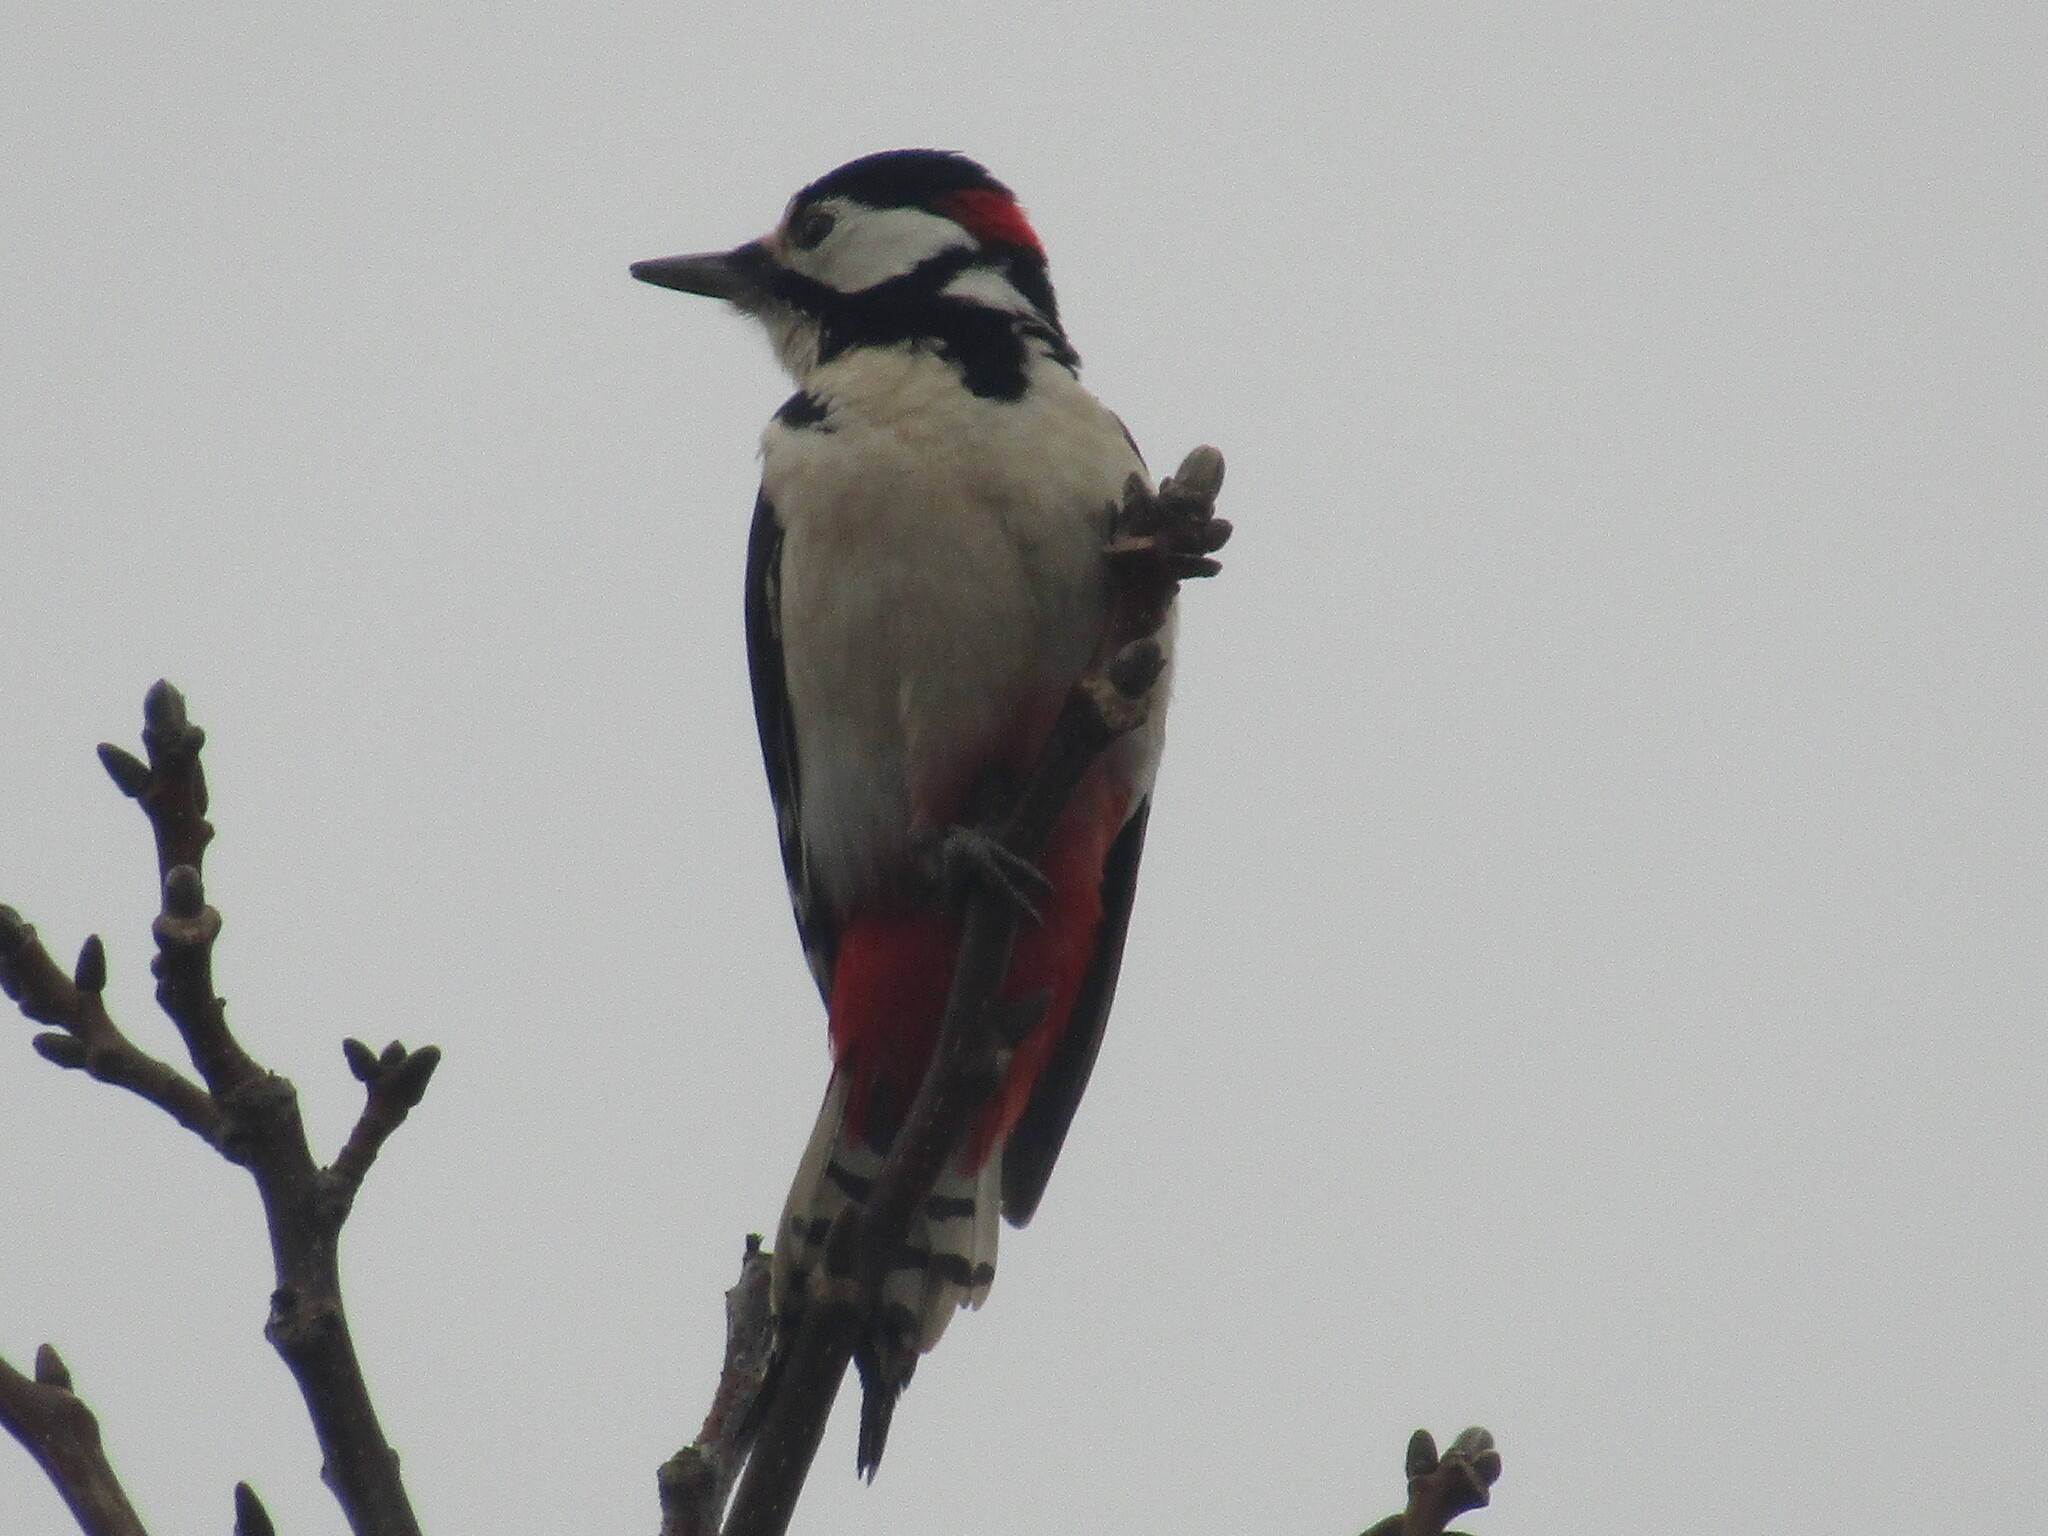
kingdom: Animalia
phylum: Chordata
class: Aves
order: Piciformes
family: Picidae
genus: Dendrocopos
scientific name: Dendrocopos major
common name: Great spotted woodpecker
